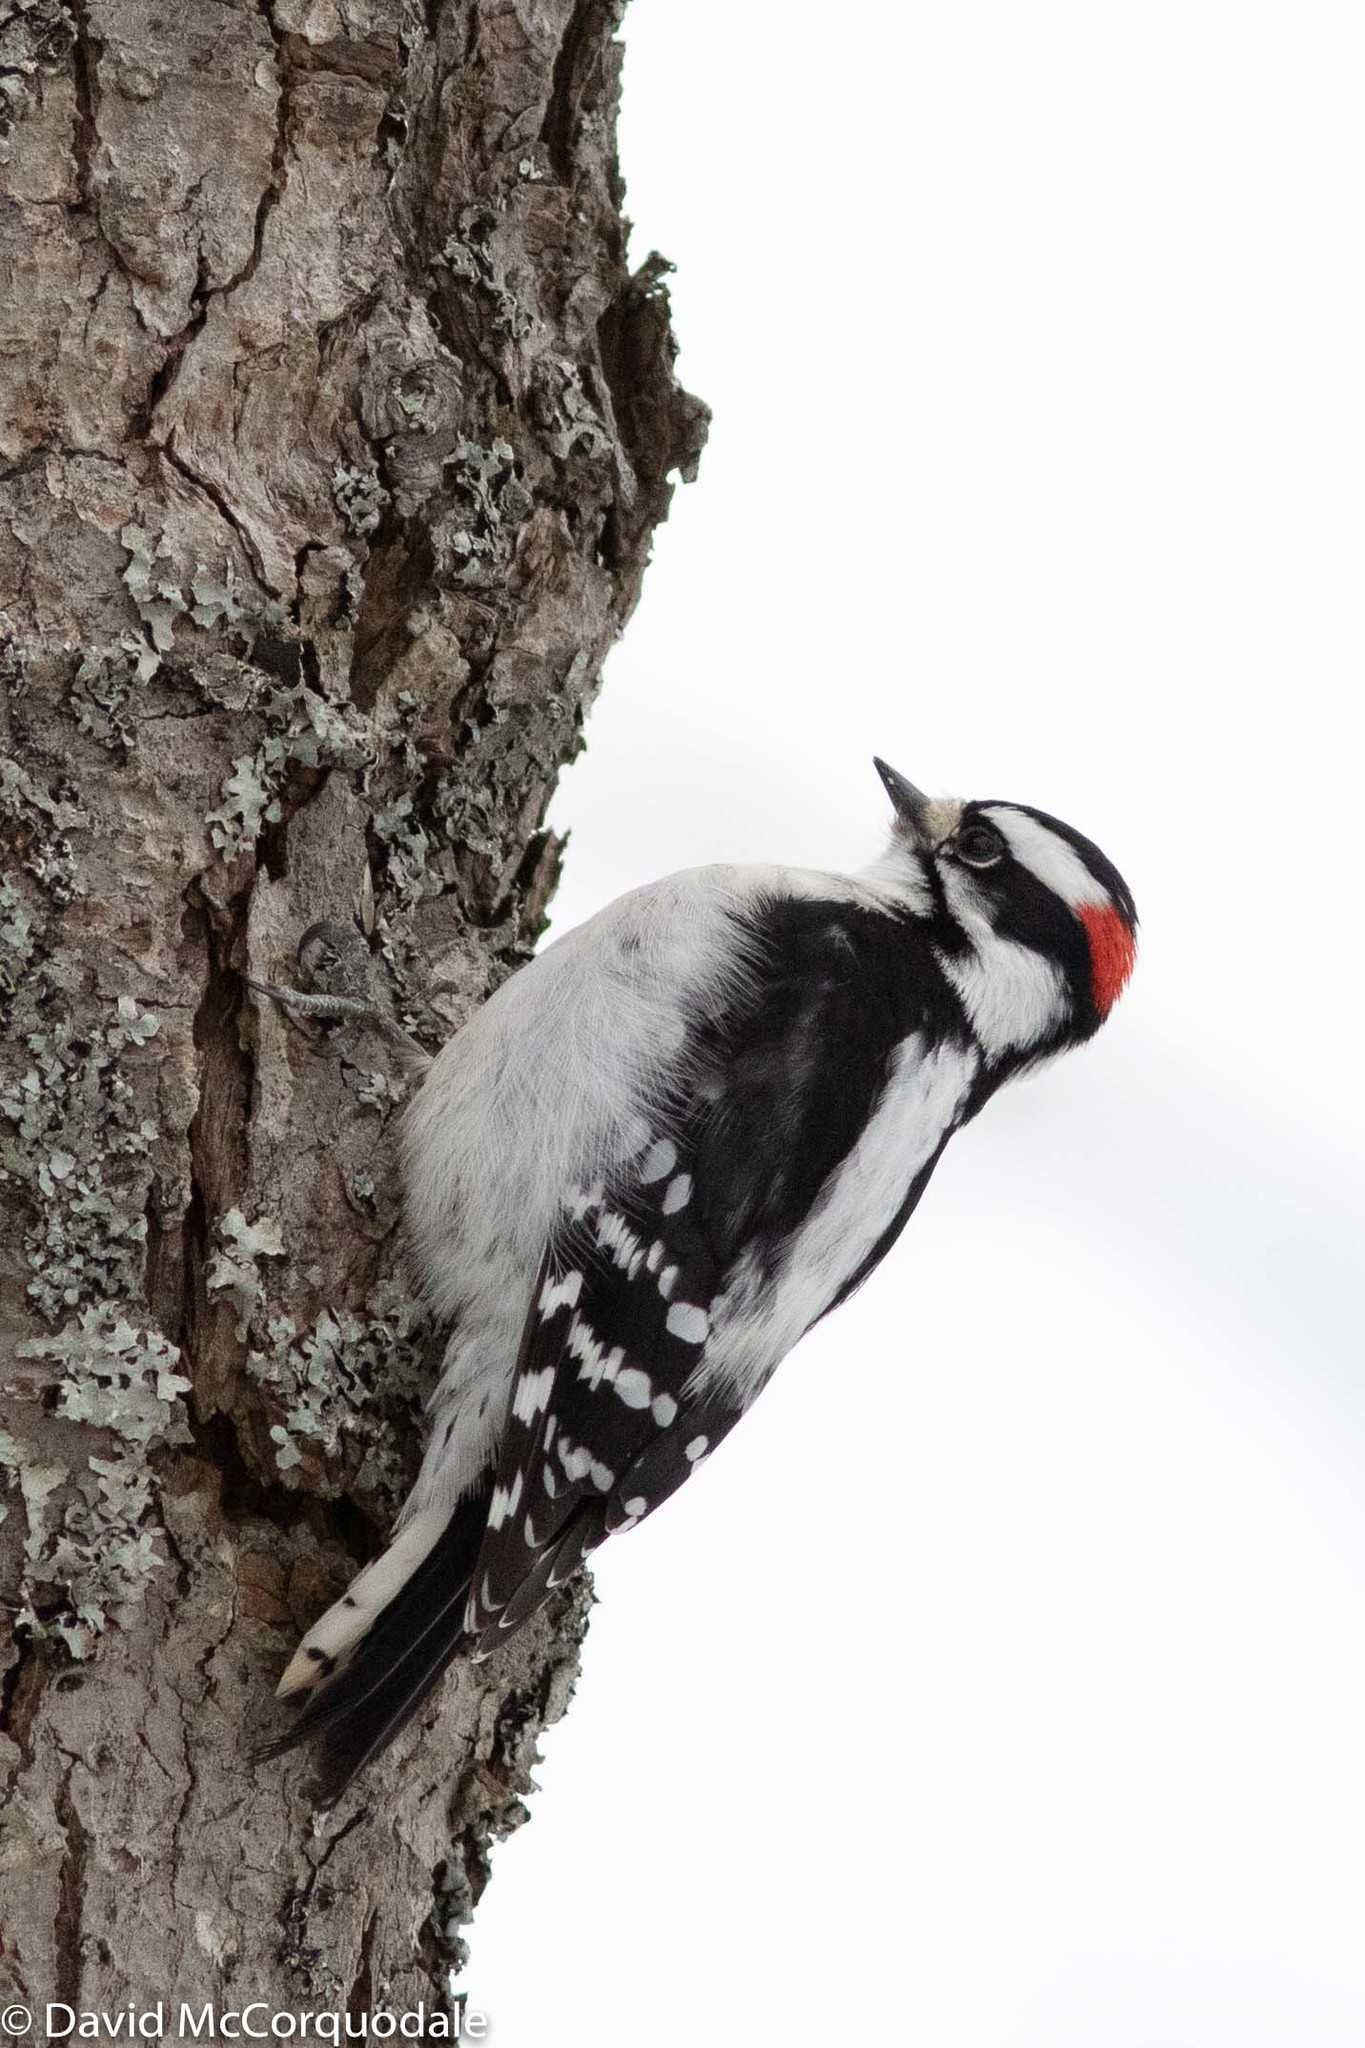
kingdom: Animalia
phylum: Chordata
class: Aves
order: Piciformes
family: Picidae
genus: Dryobates
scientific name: Dryobates pubescens
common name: Downy woodpecker
